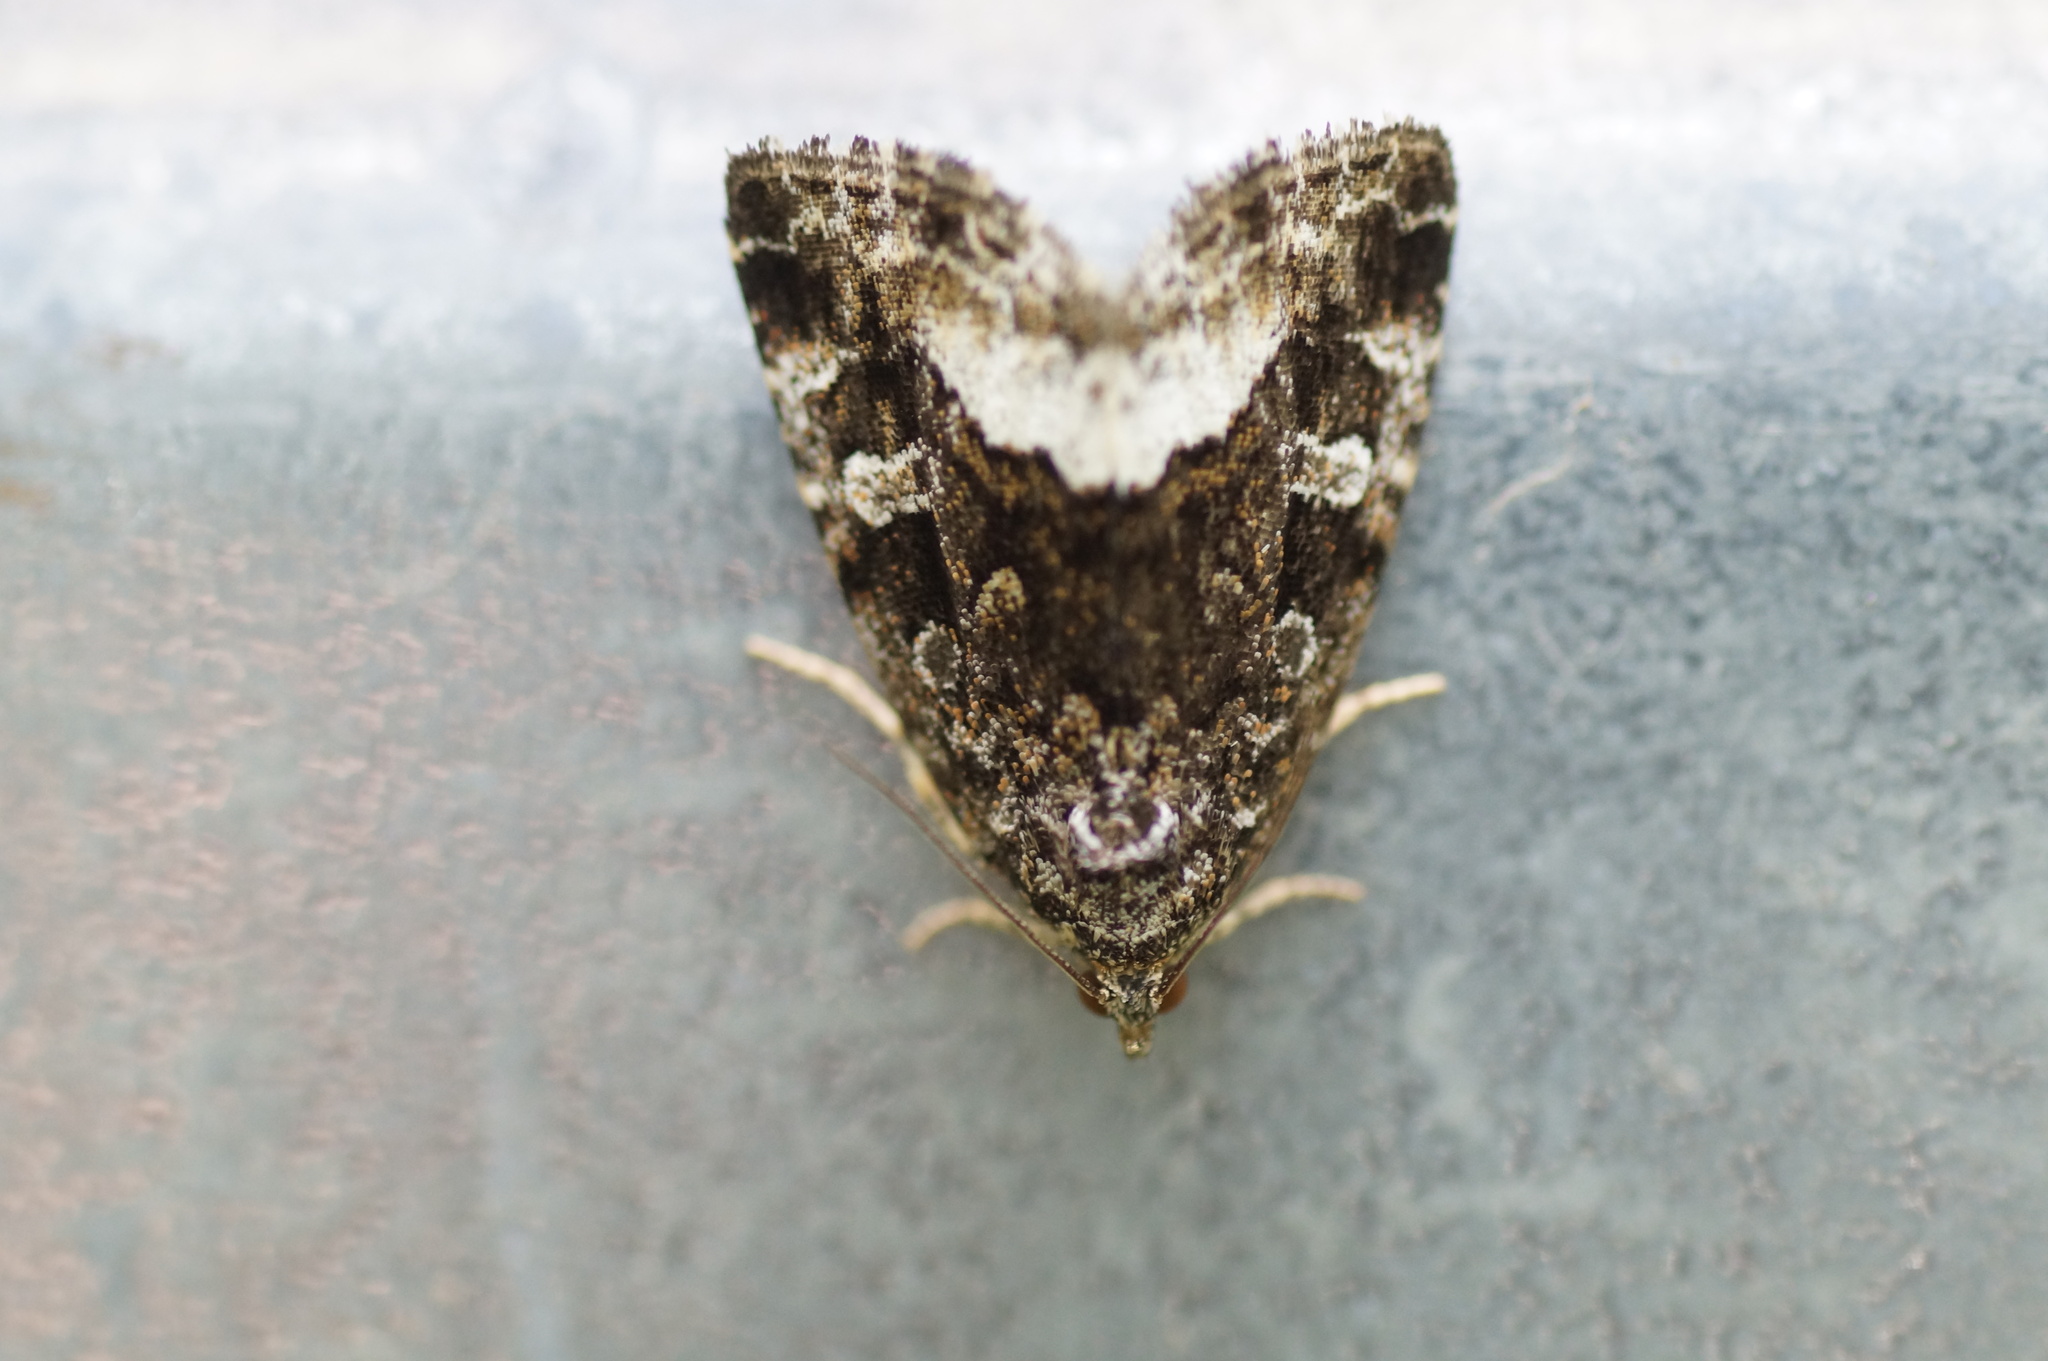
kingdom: Animalia
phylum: Arthropoda
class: Insecta
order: Lepidoptera
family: Noctuidae
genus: Deltote
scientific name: Deltote pygarga
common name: Marbled white spot
